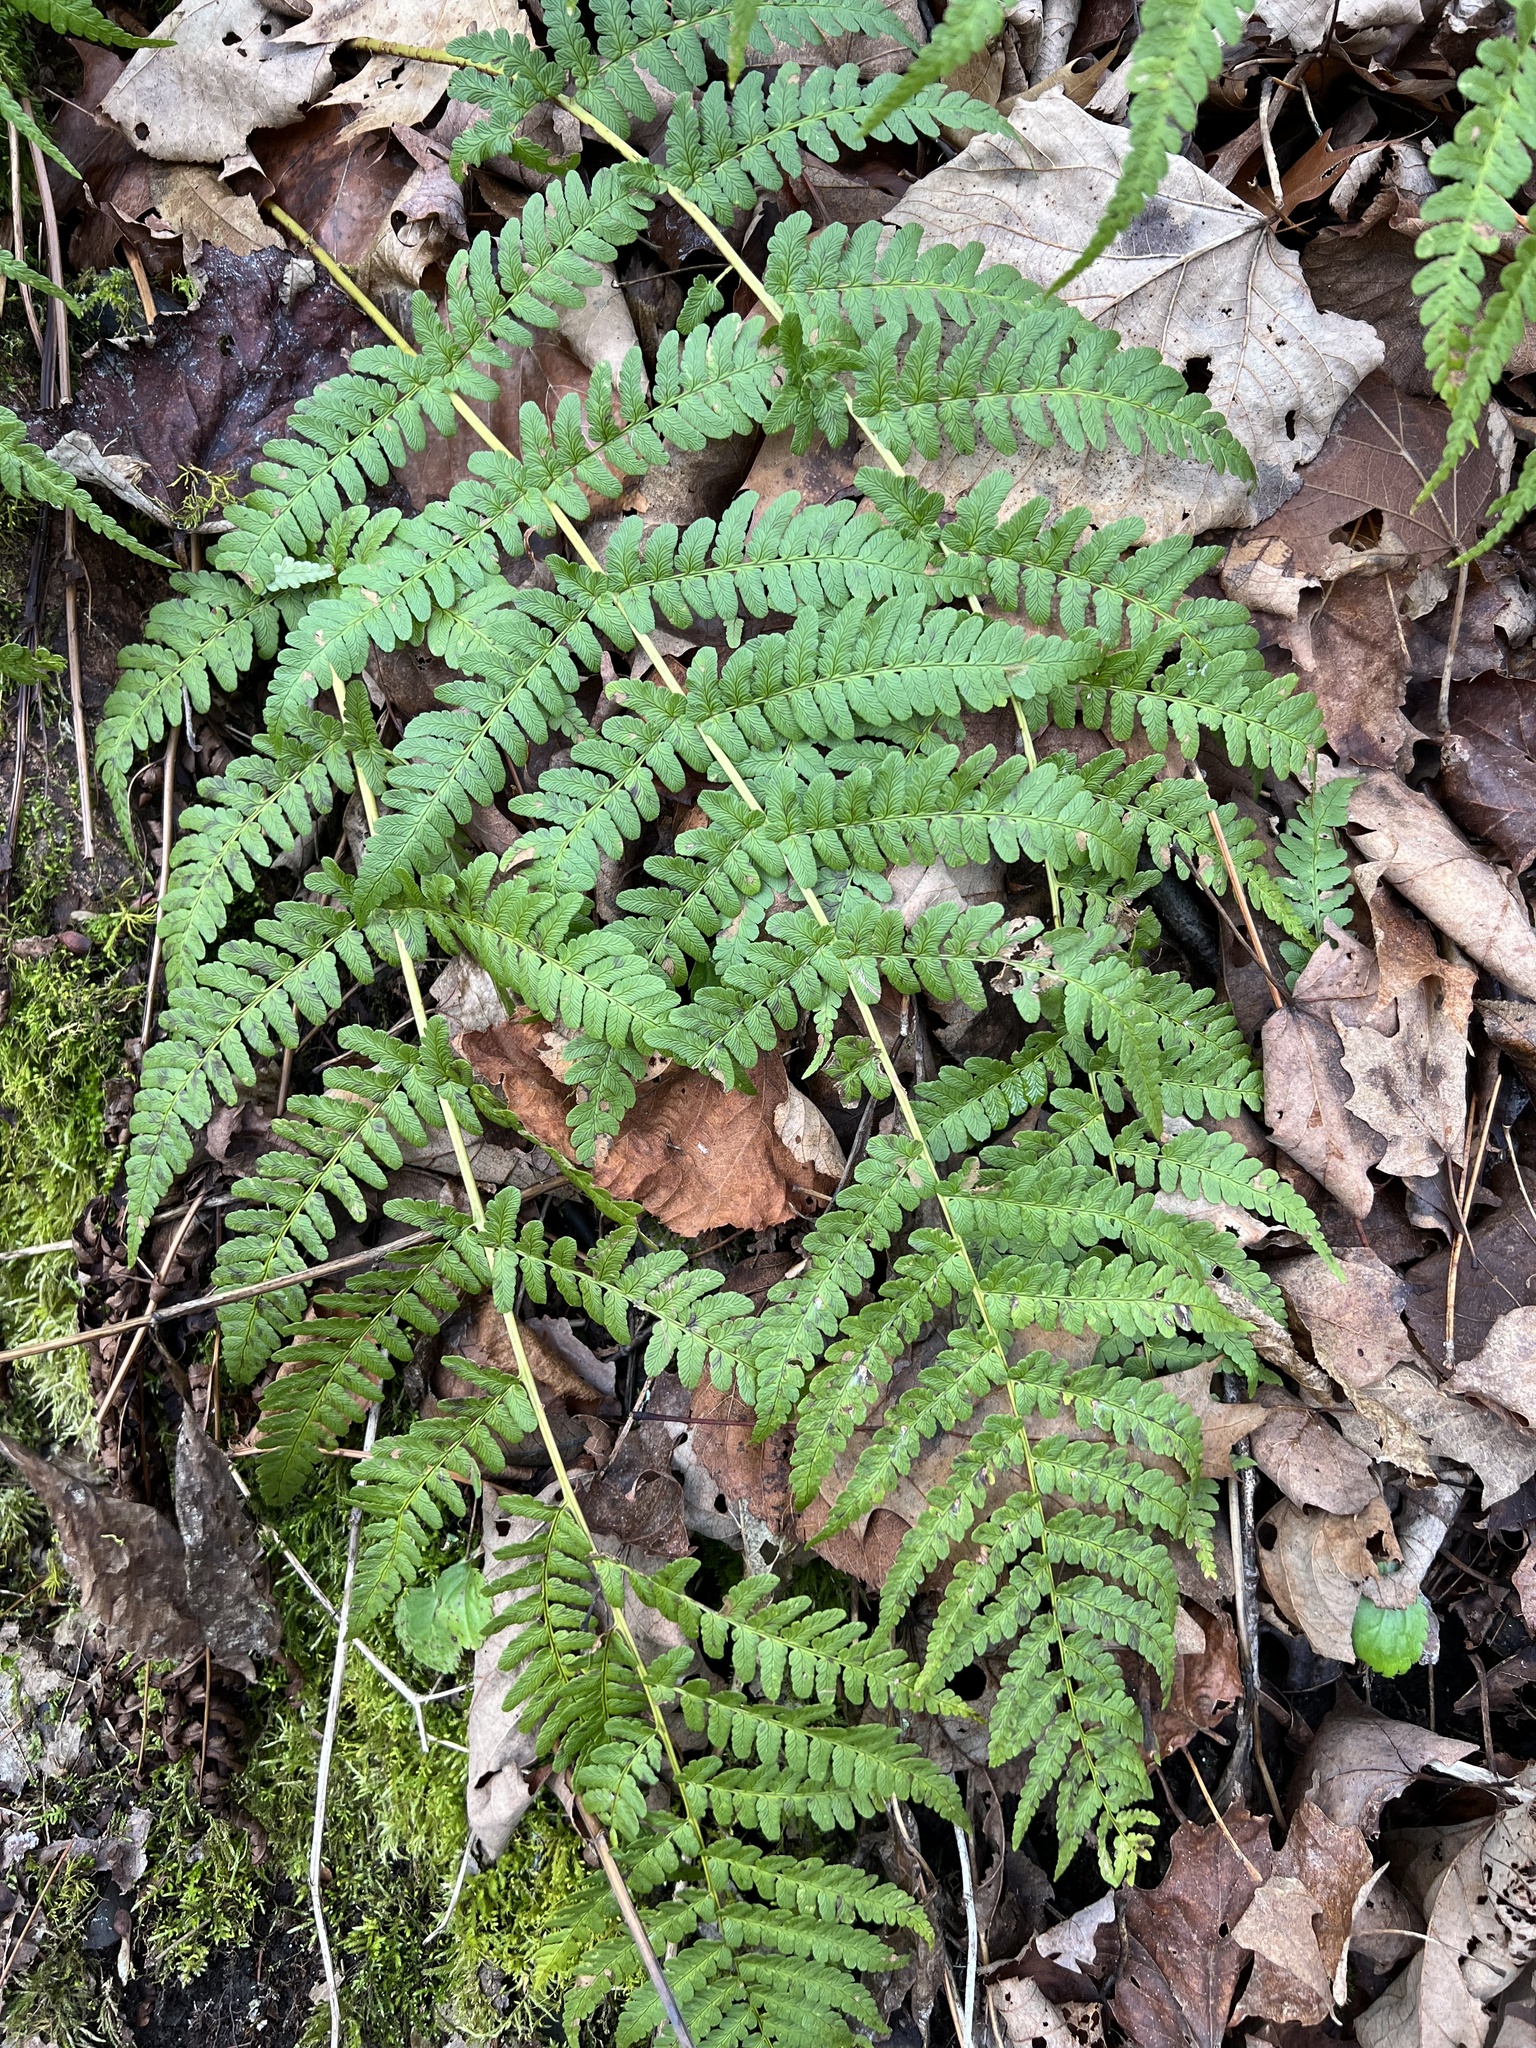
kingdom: Plantae
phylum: Tracheophyta
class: Polypodiopsida
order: Polypodiales
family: Dryopteridaceae
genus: Dryopteris
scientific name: Dryopteris marginalis
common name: Marginal wood fern
